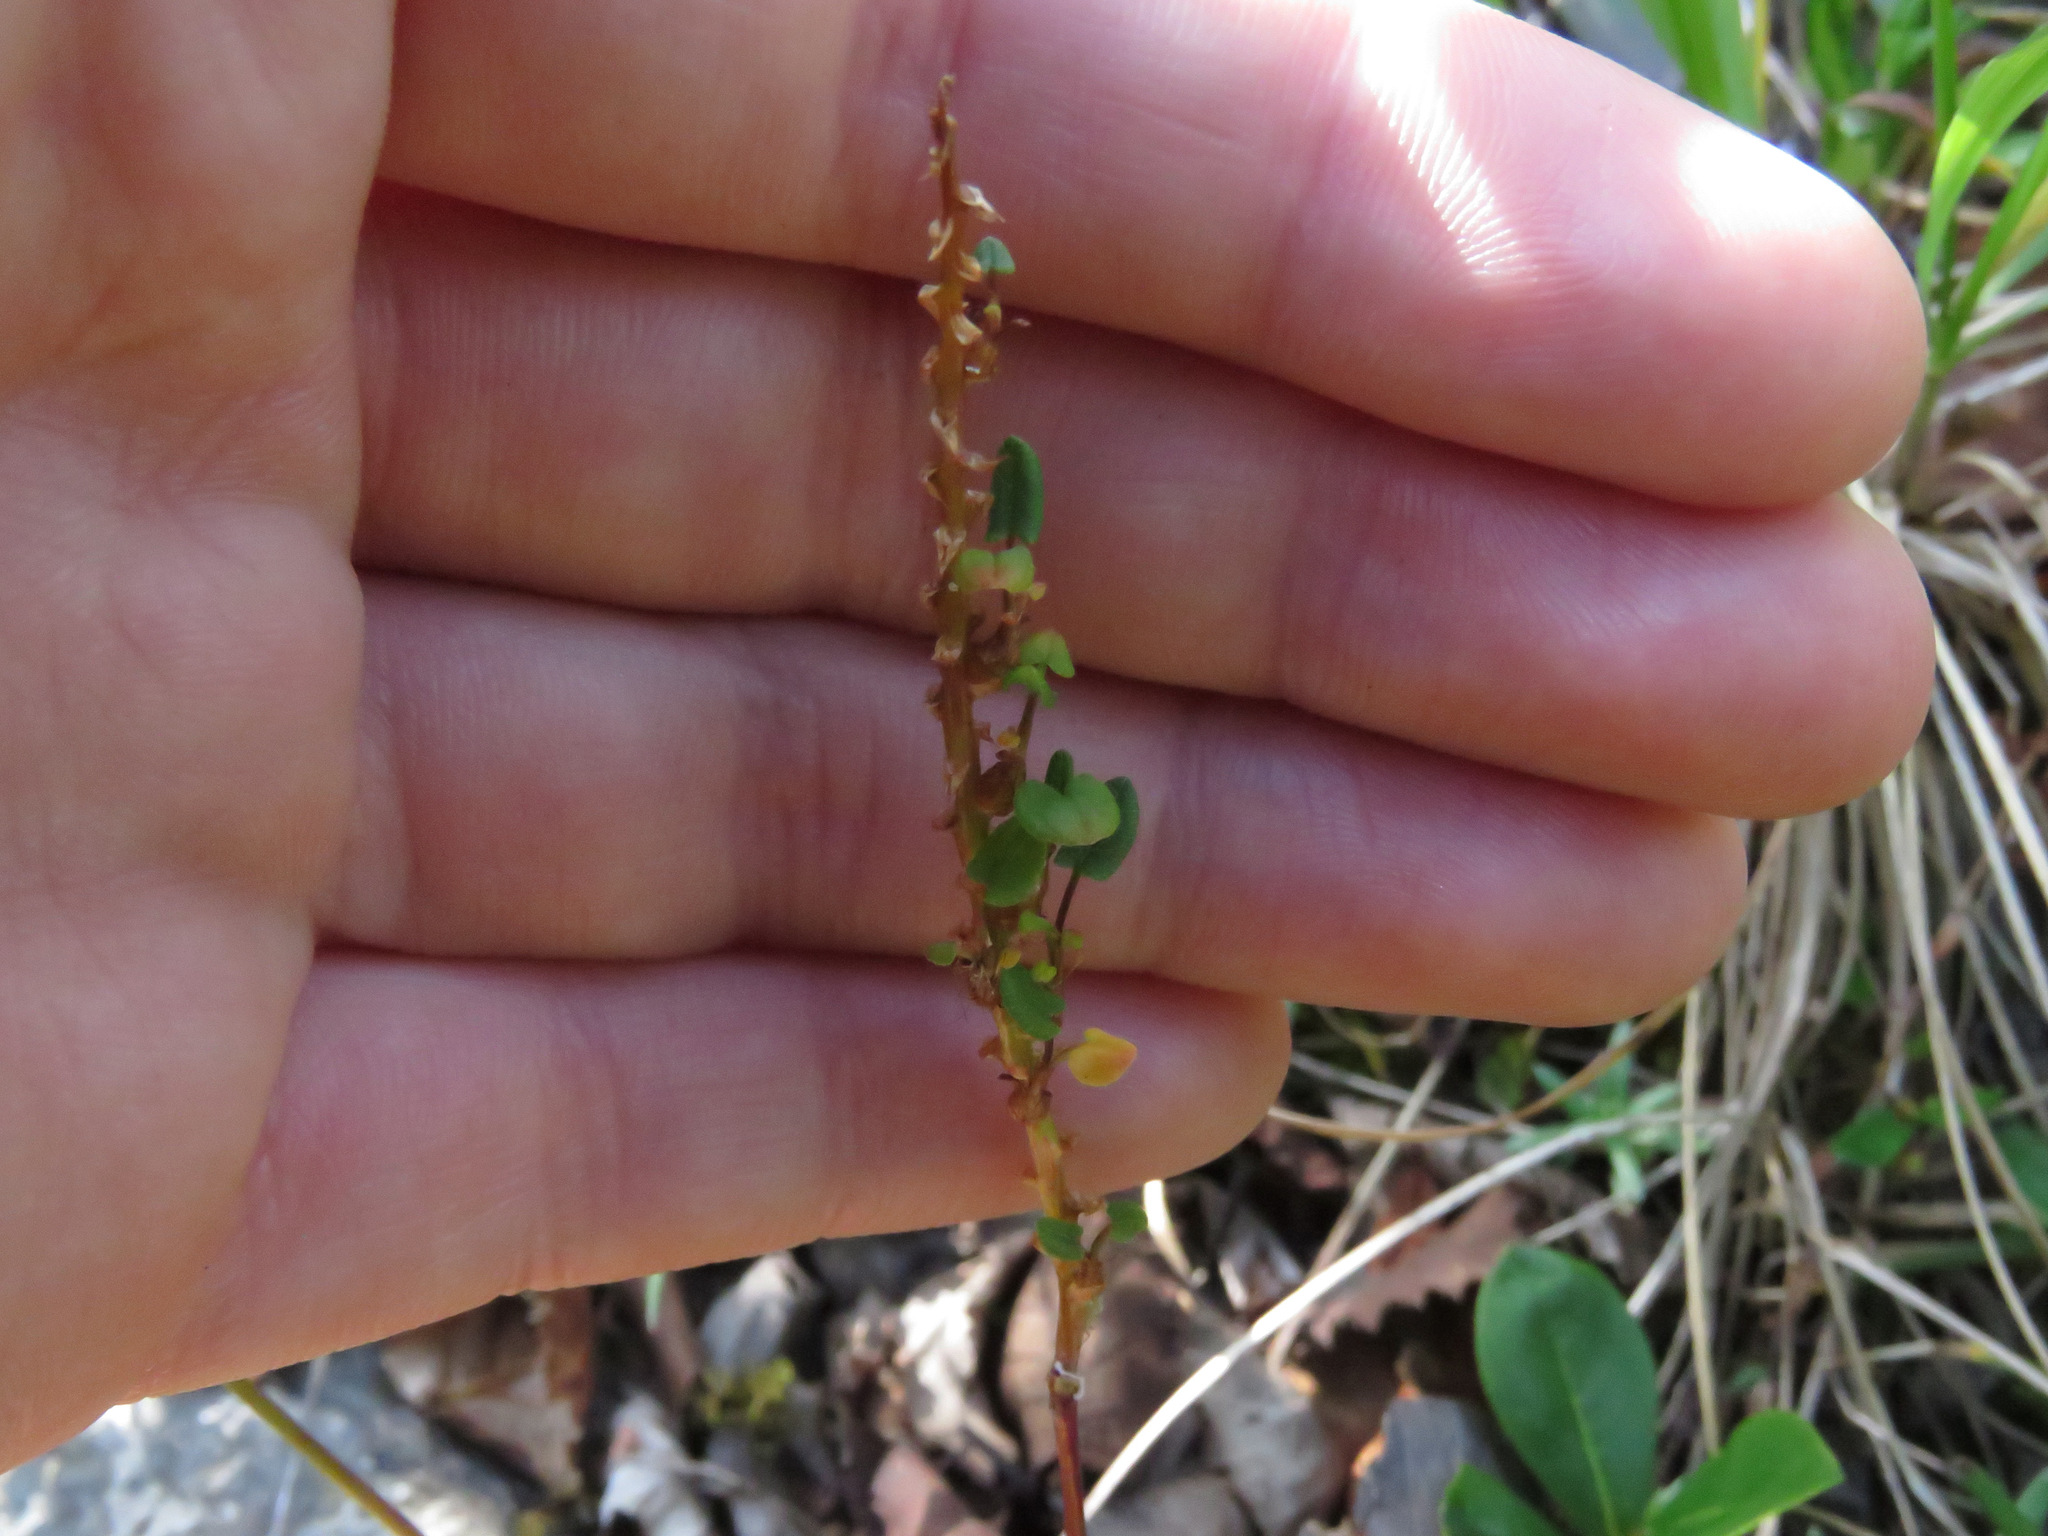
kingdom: Plantae
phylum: Tracheophyta
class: Magnoliopsida
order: Caryophyllales
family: Polygonaceae
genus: Bistorta
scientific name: Bistorta vivipara
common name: Alpine bistort
